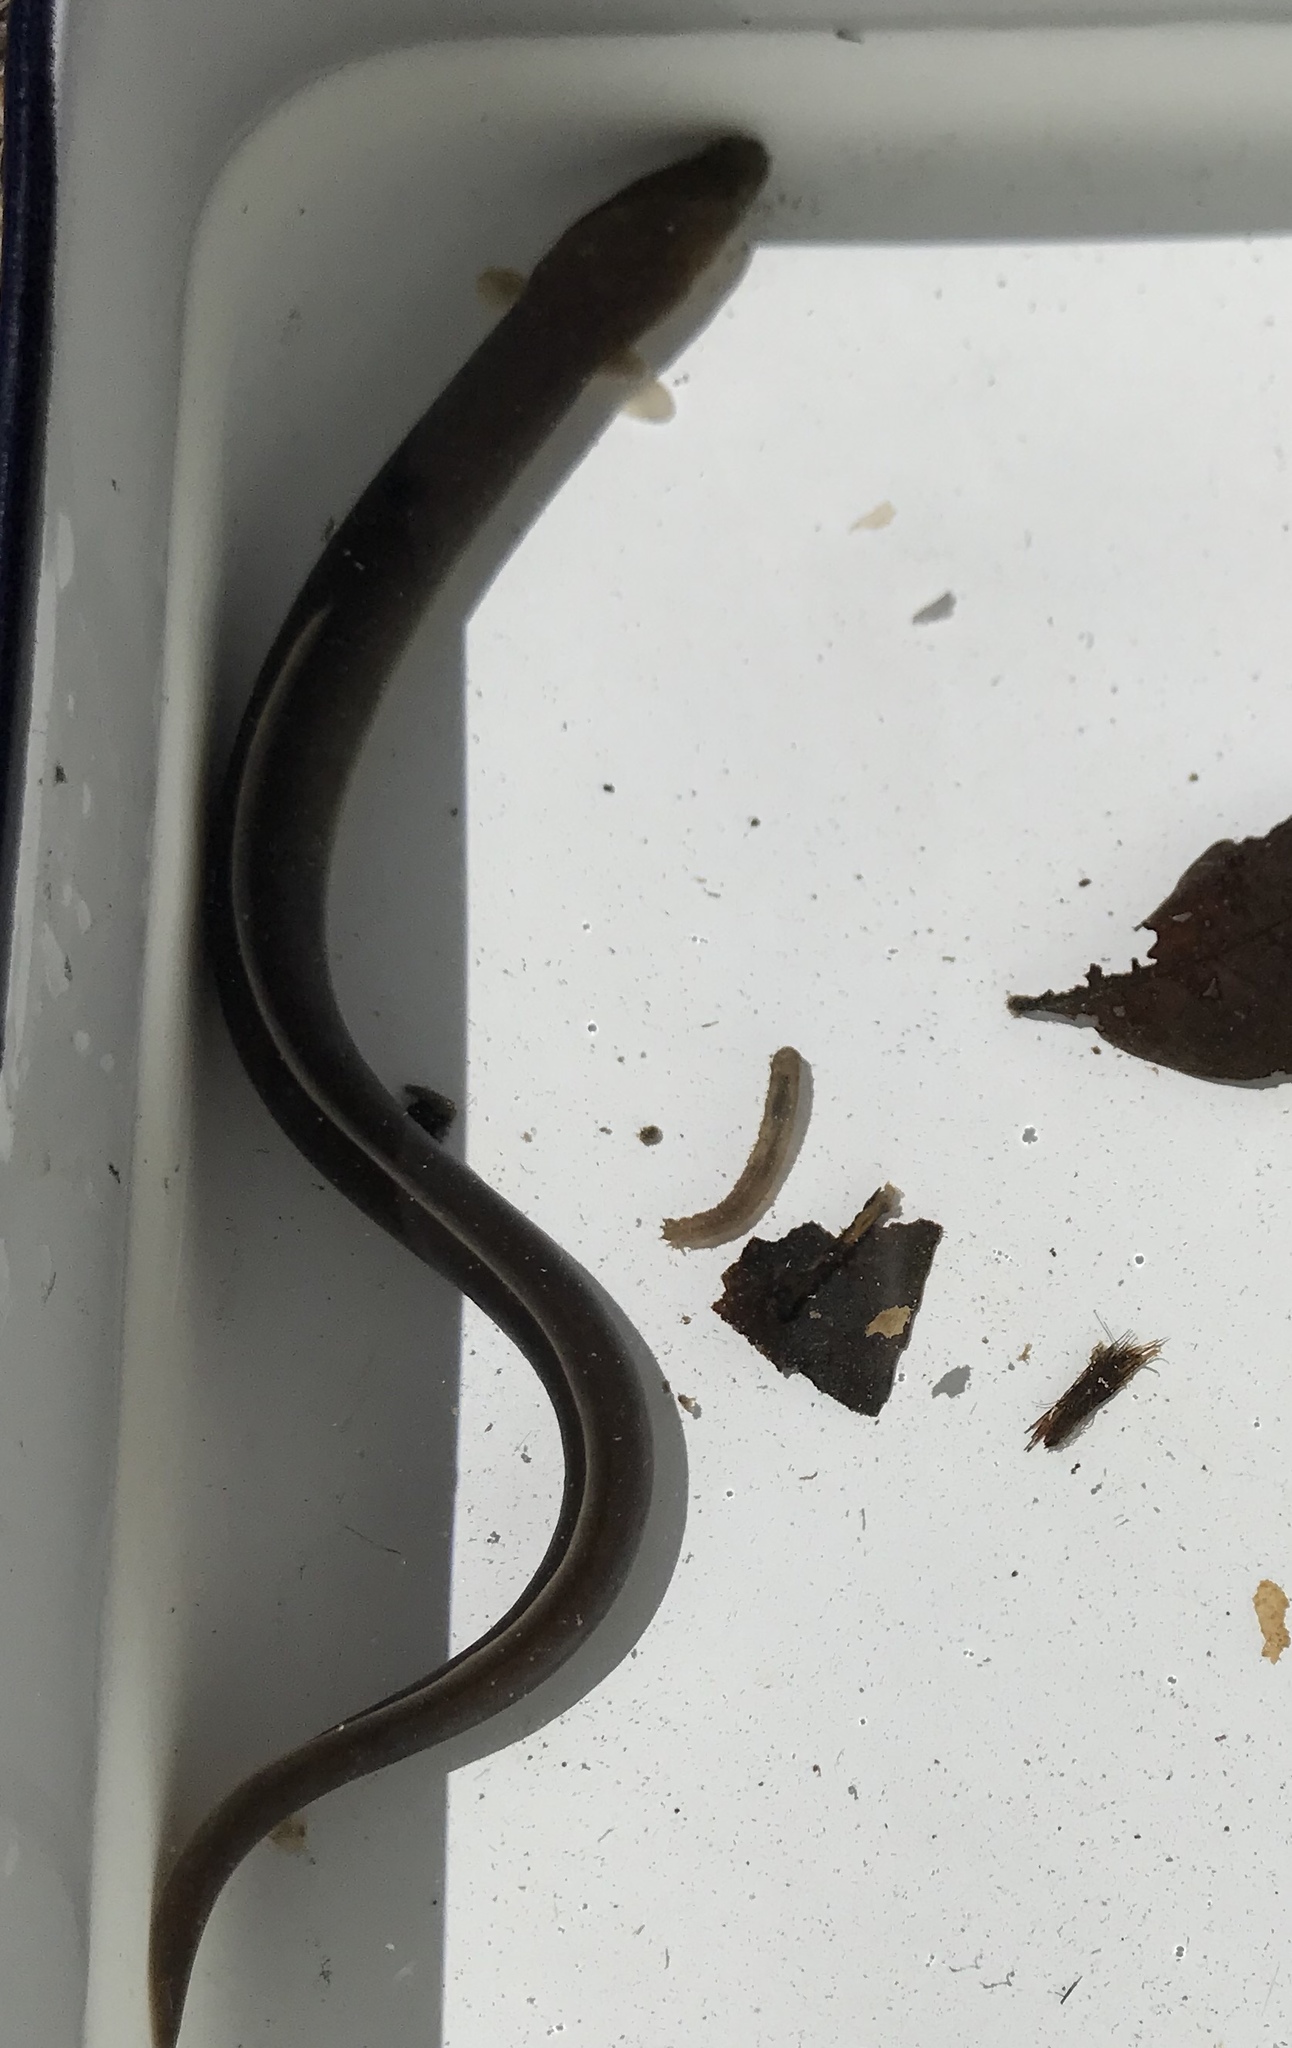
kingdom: Animalia
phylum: Chordata
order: Anguilliformes
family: Anguillidae
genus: Anguilla
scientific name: Anguilla dieffenbachii
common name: New zealand longfin eel
